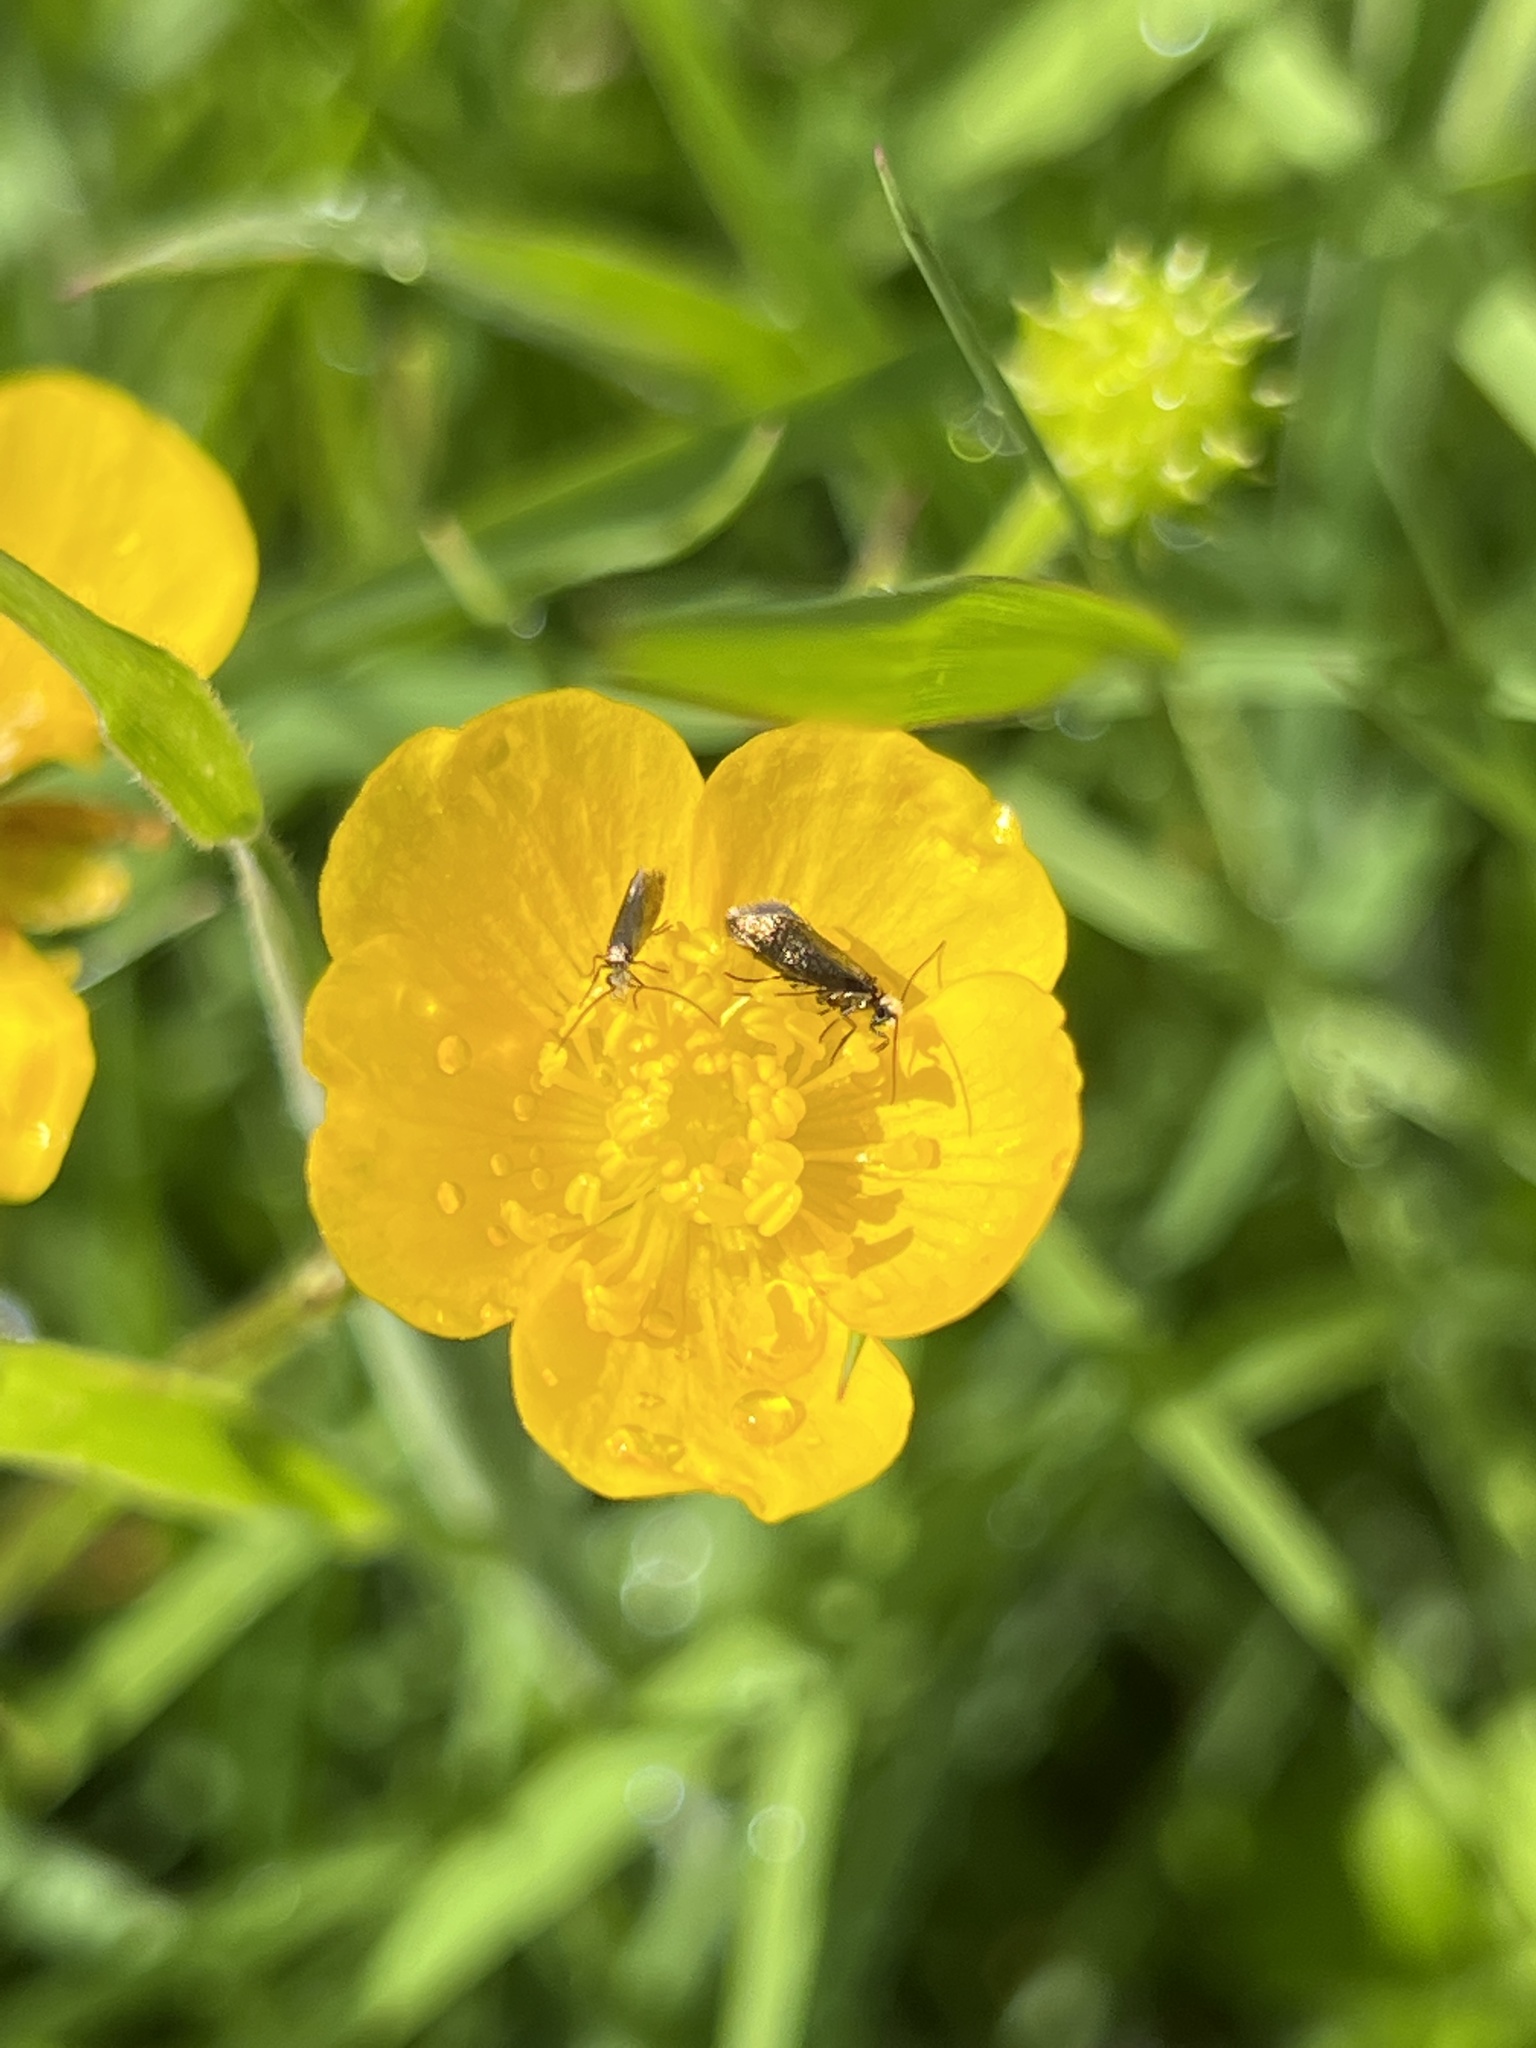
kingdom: Animalia
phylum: Arthropoda
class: Insecta
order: Lepidoptera
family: Micropterigidae
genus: Micropterix
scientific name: Micropterix calthella
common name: Plain gold
